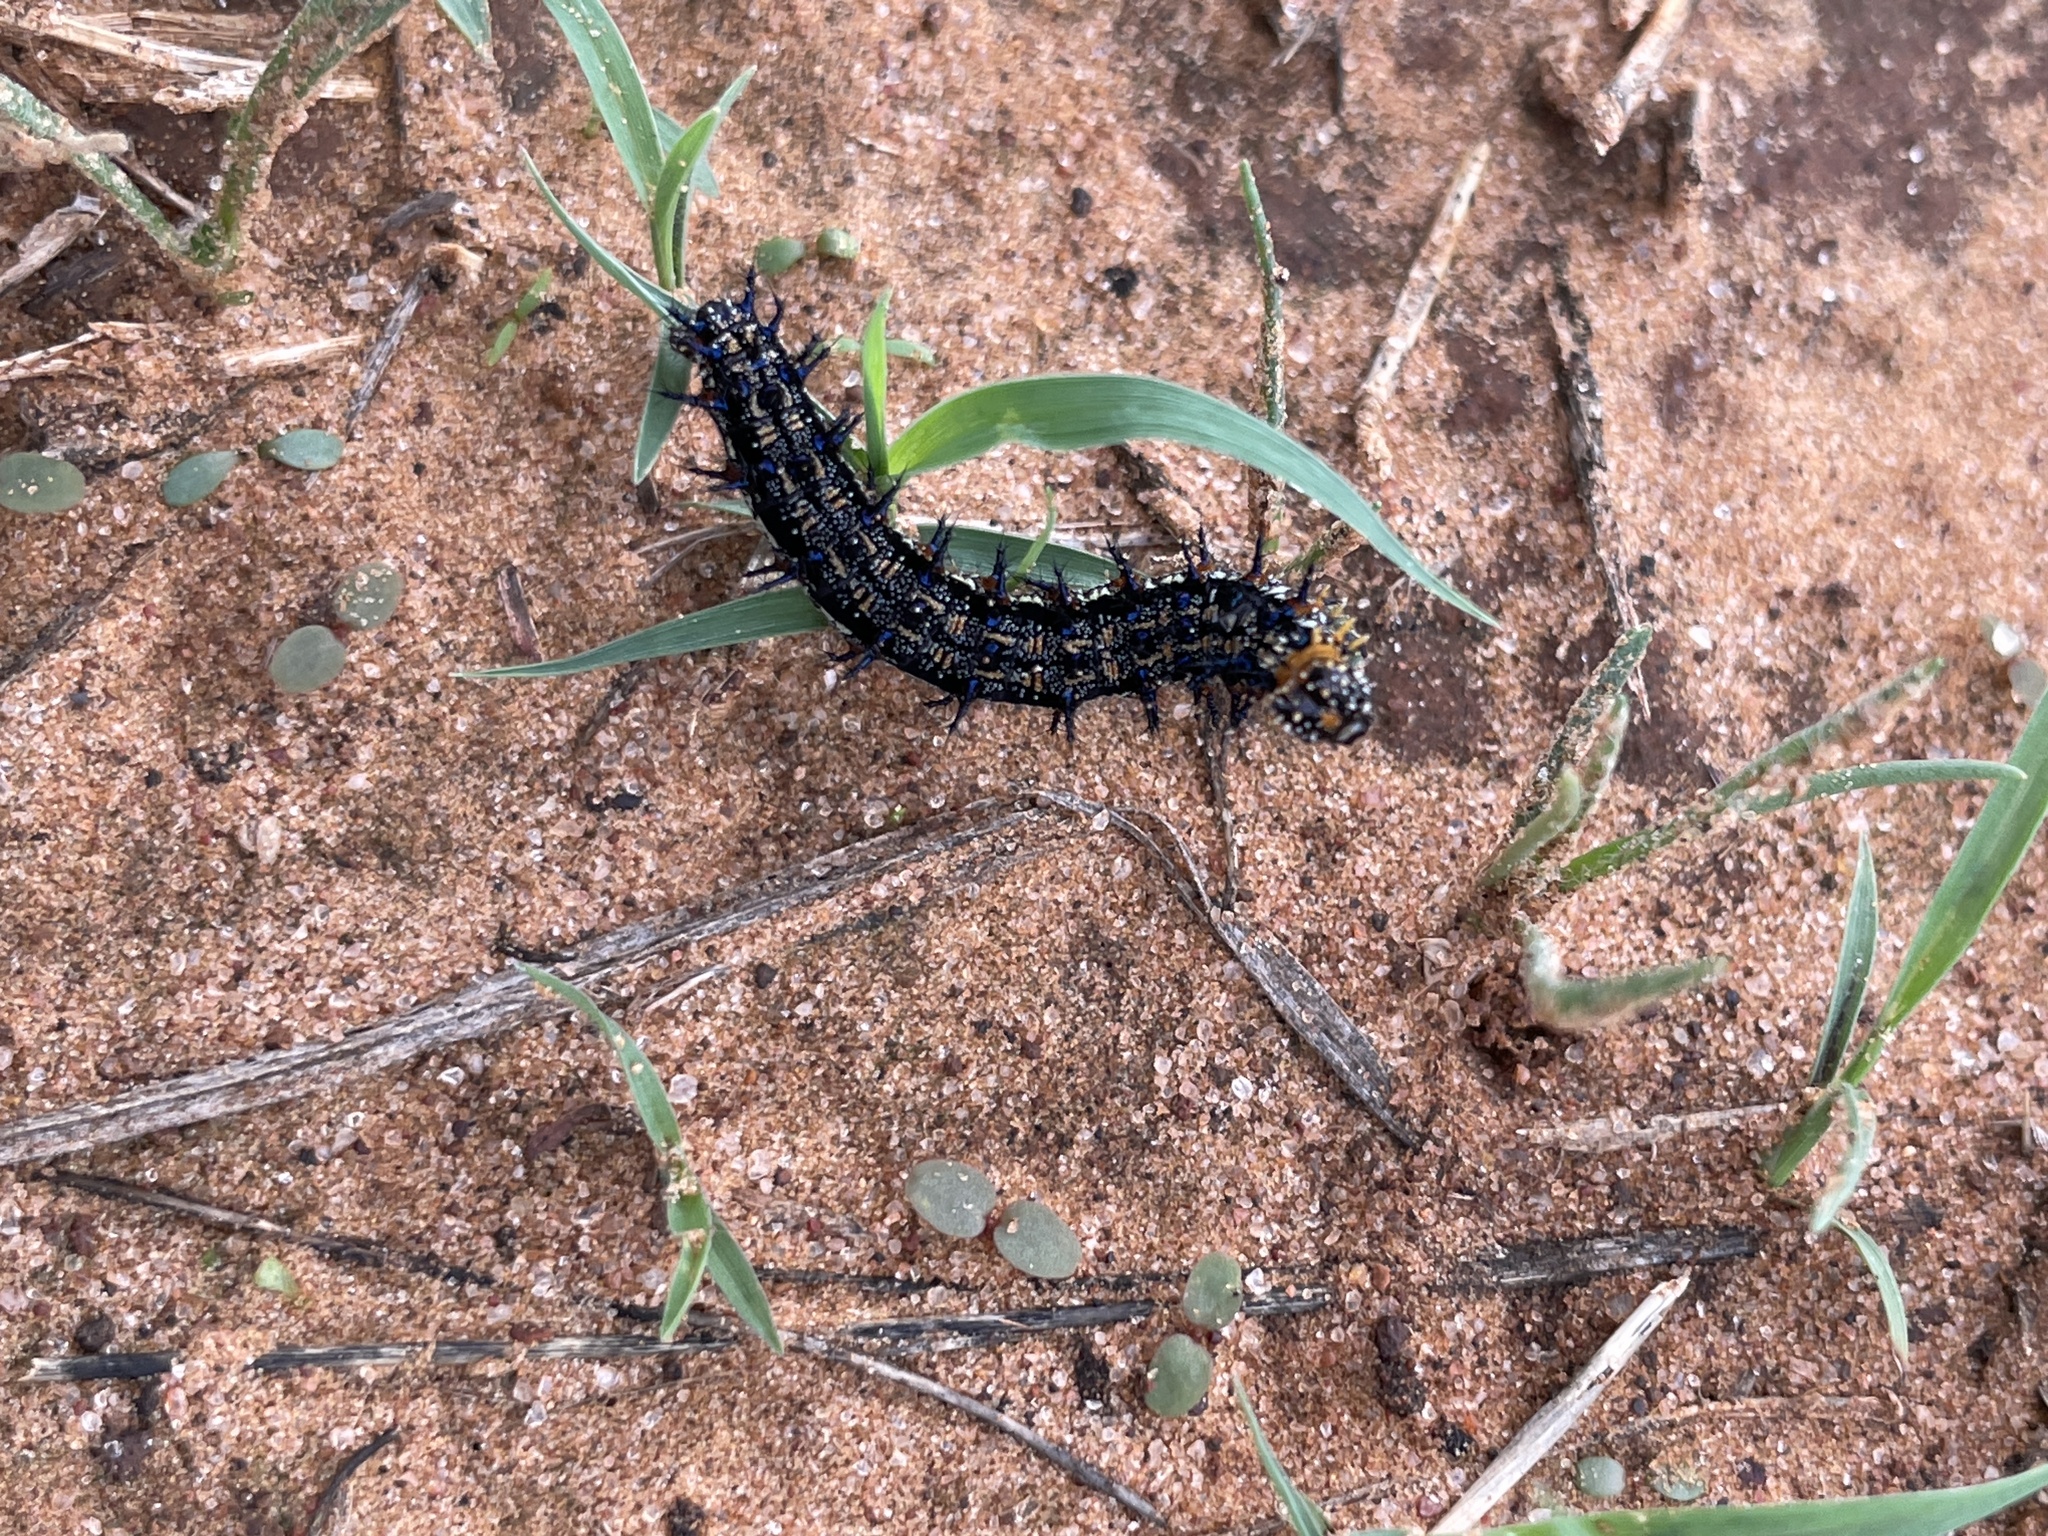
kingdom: Animalia
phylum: Arthropoda
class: Insecta
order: Lepidoptera
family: Nymphalidae
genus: Junonia
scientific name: Junonia coenia
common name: Common buckeye
